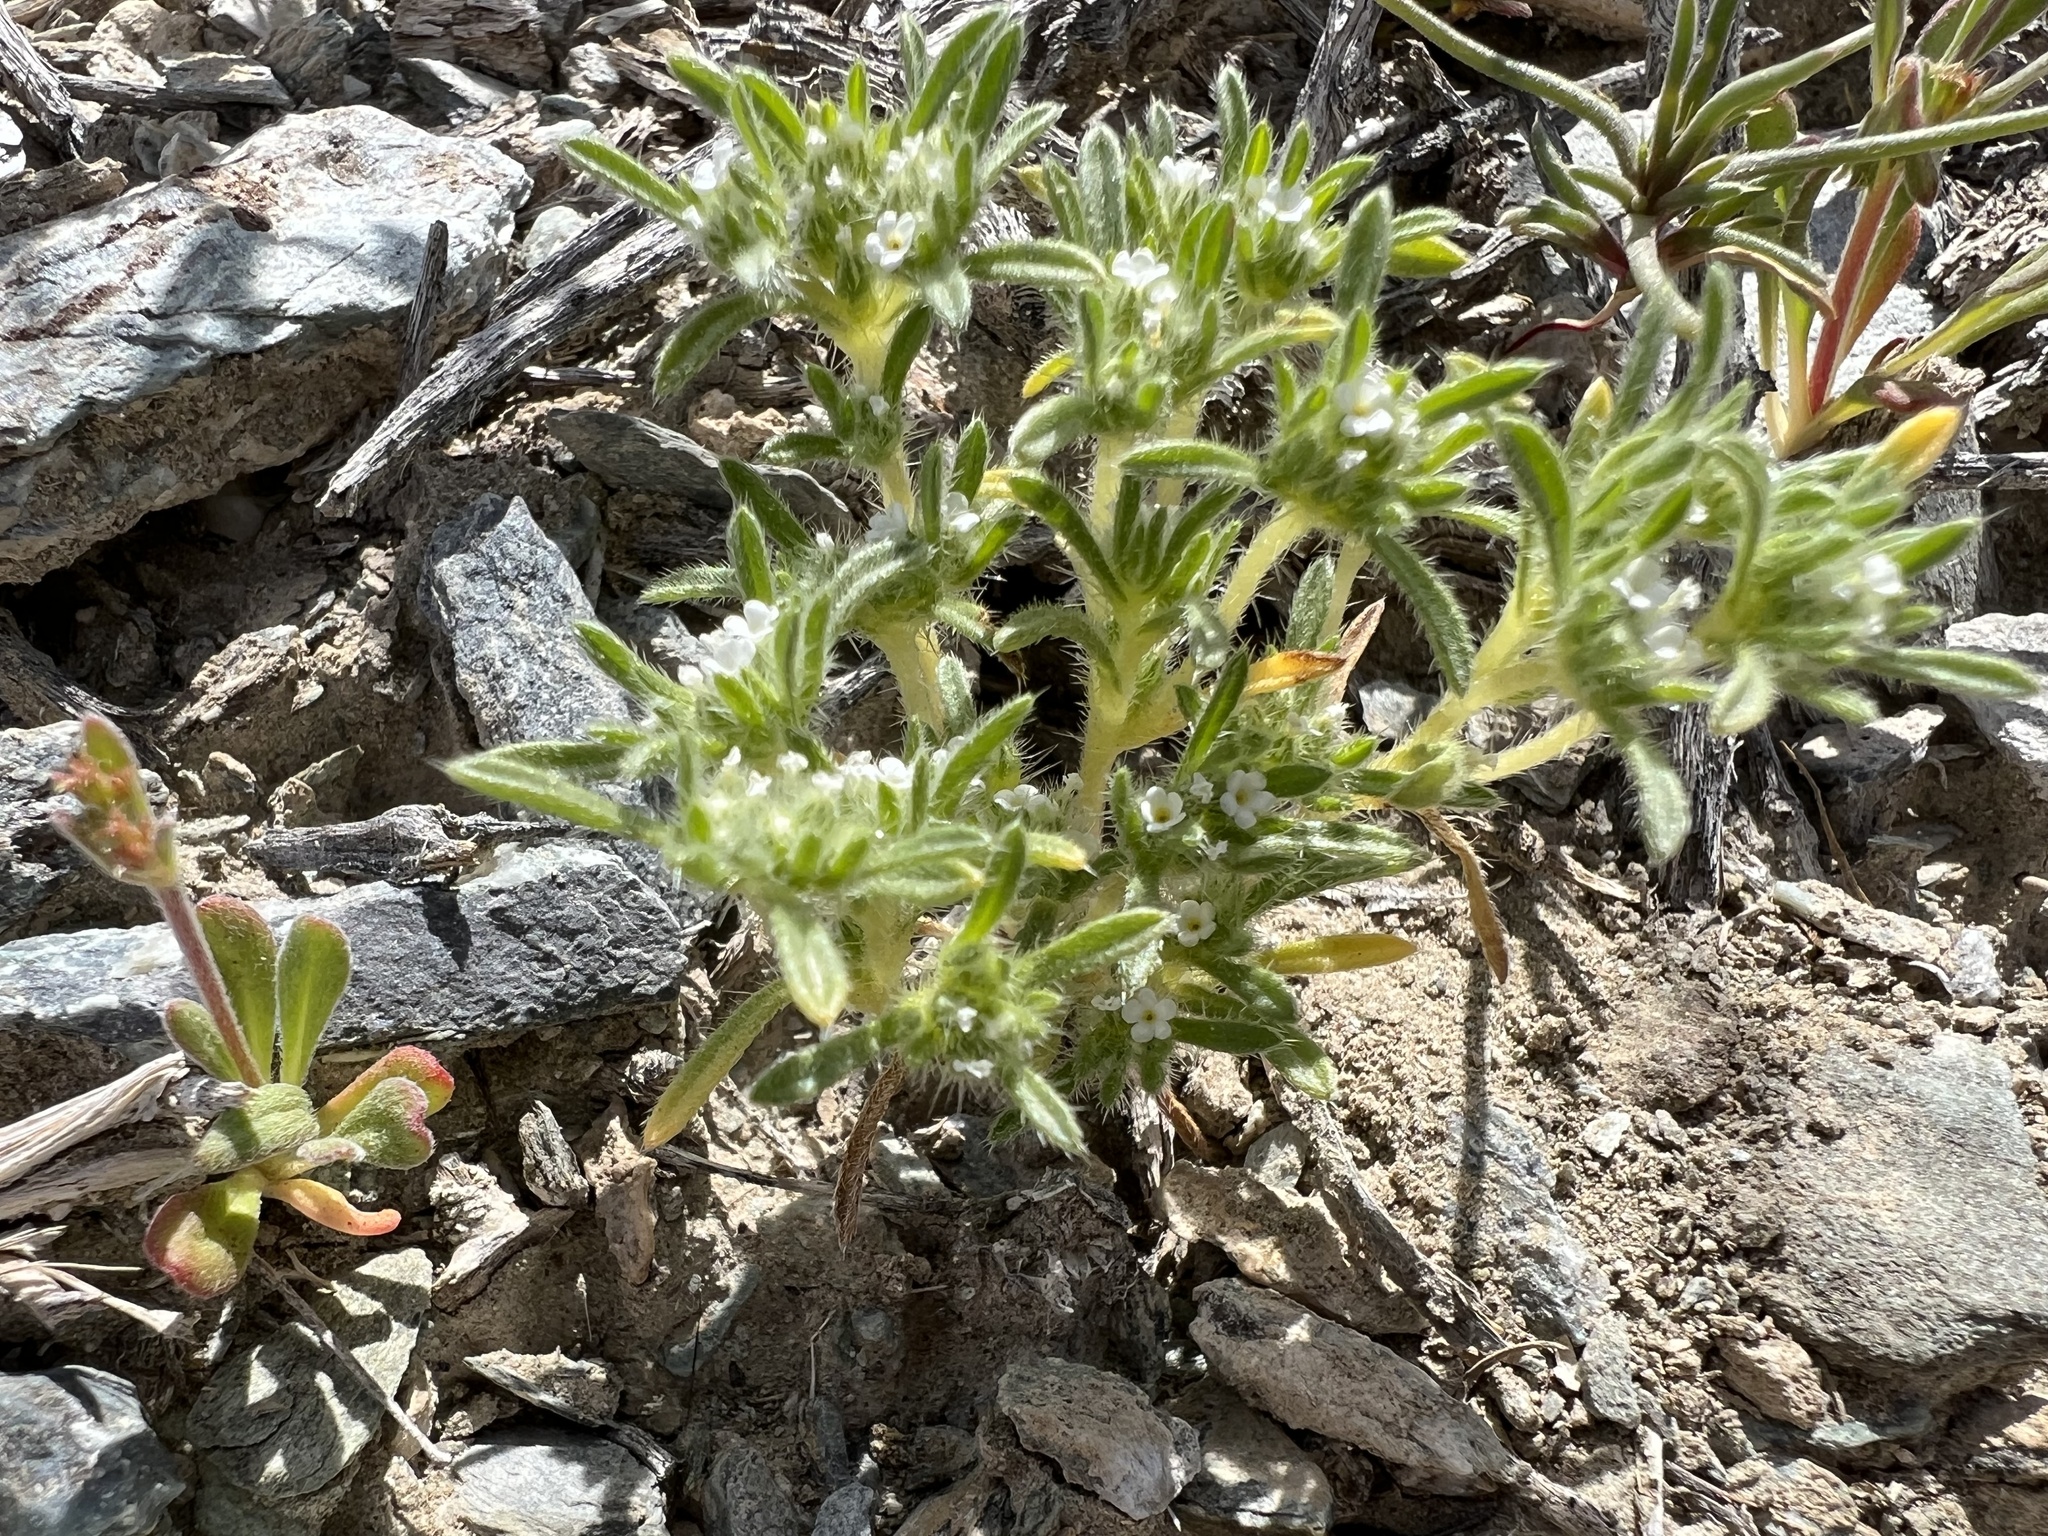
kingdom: Plantae
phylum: Tracheophyta
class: Magnoliopsida
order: Boraginales
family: Boraginaceae
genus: Greeneocharis
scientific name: Greeneocharis circumscissa
